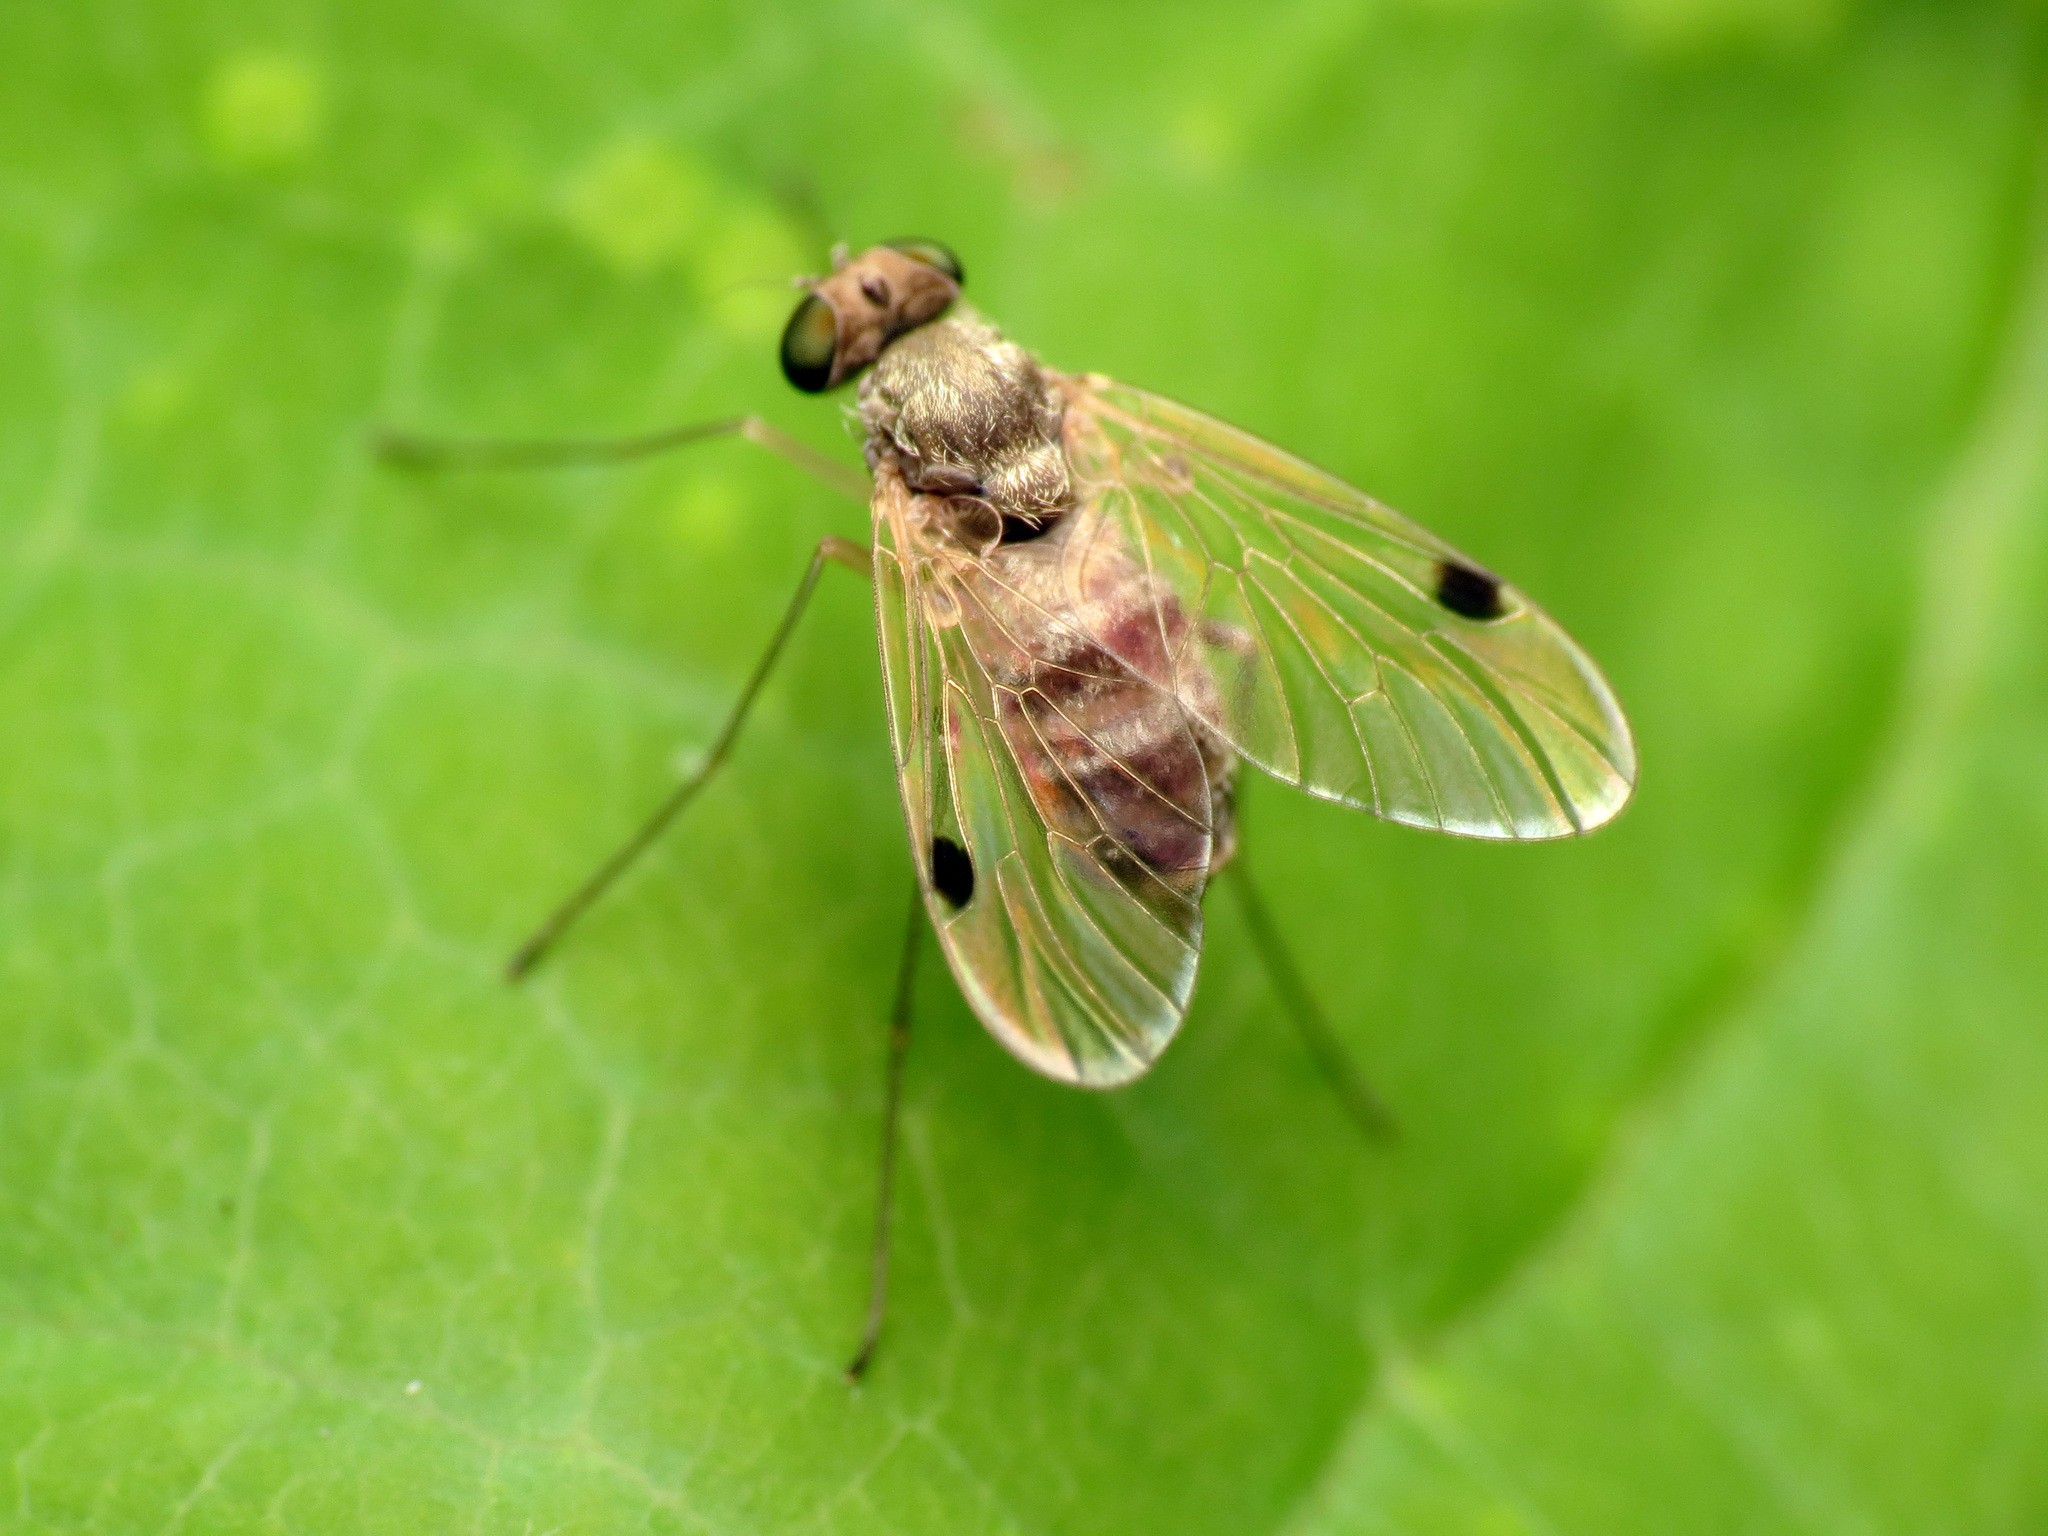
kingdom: Animalia
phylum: Arthropoda
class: Insecta
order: Diptera
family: Rhagionidae
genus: Chrysopilus
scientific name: Chrysopilus modestus
